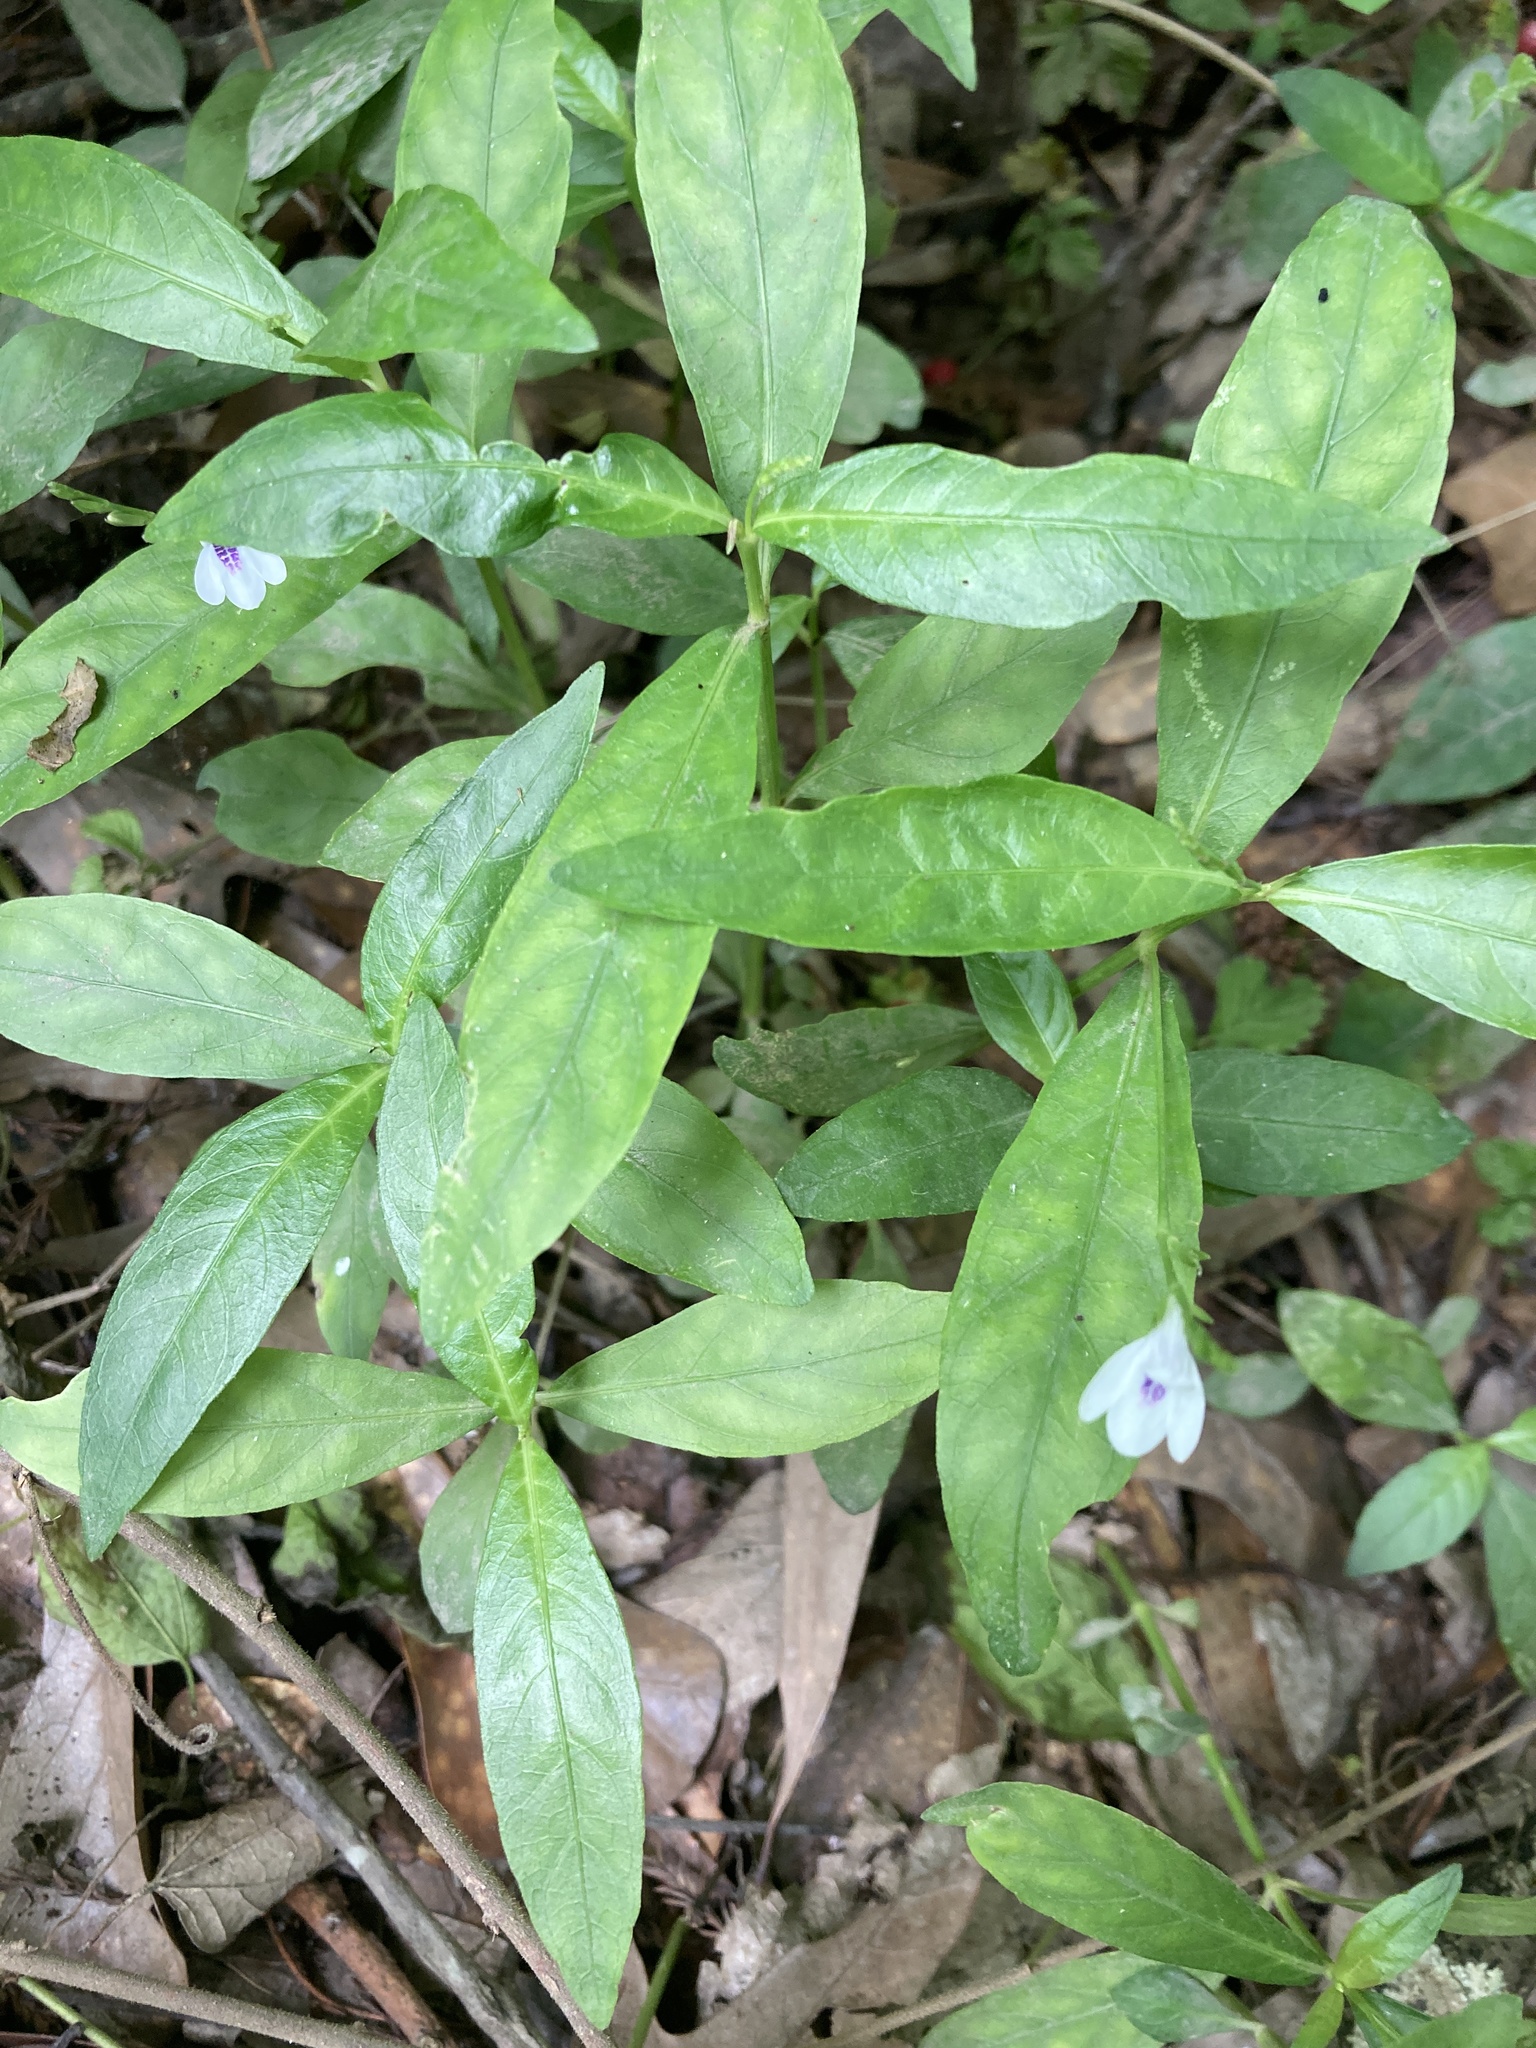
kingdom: Plantae
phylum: Tracheophyta
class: Magnoliopsida
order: Lamiales
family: Acanthaceae
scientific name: Acanthaceae
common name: Acanthaceae
